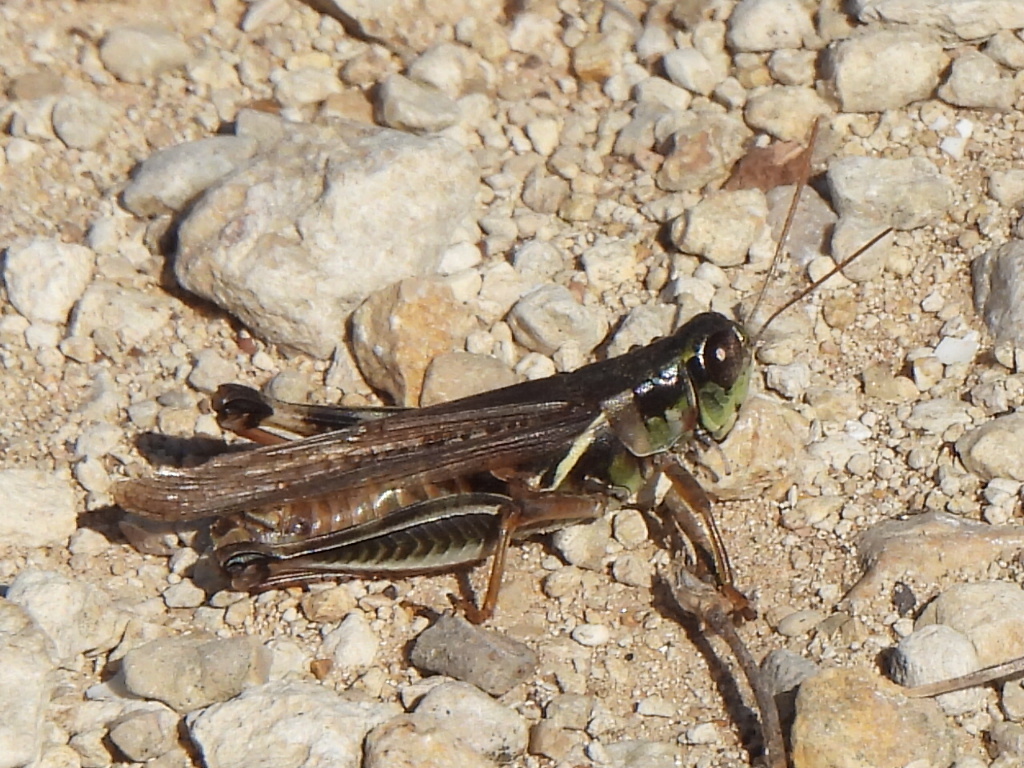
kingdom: Animalia
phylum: Arthropoda
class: Insecta
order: Orthoptera
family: Acrididae
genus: Melanoplus
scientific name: Melanoplus femurrubrum
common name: Red-legged grasshopper
